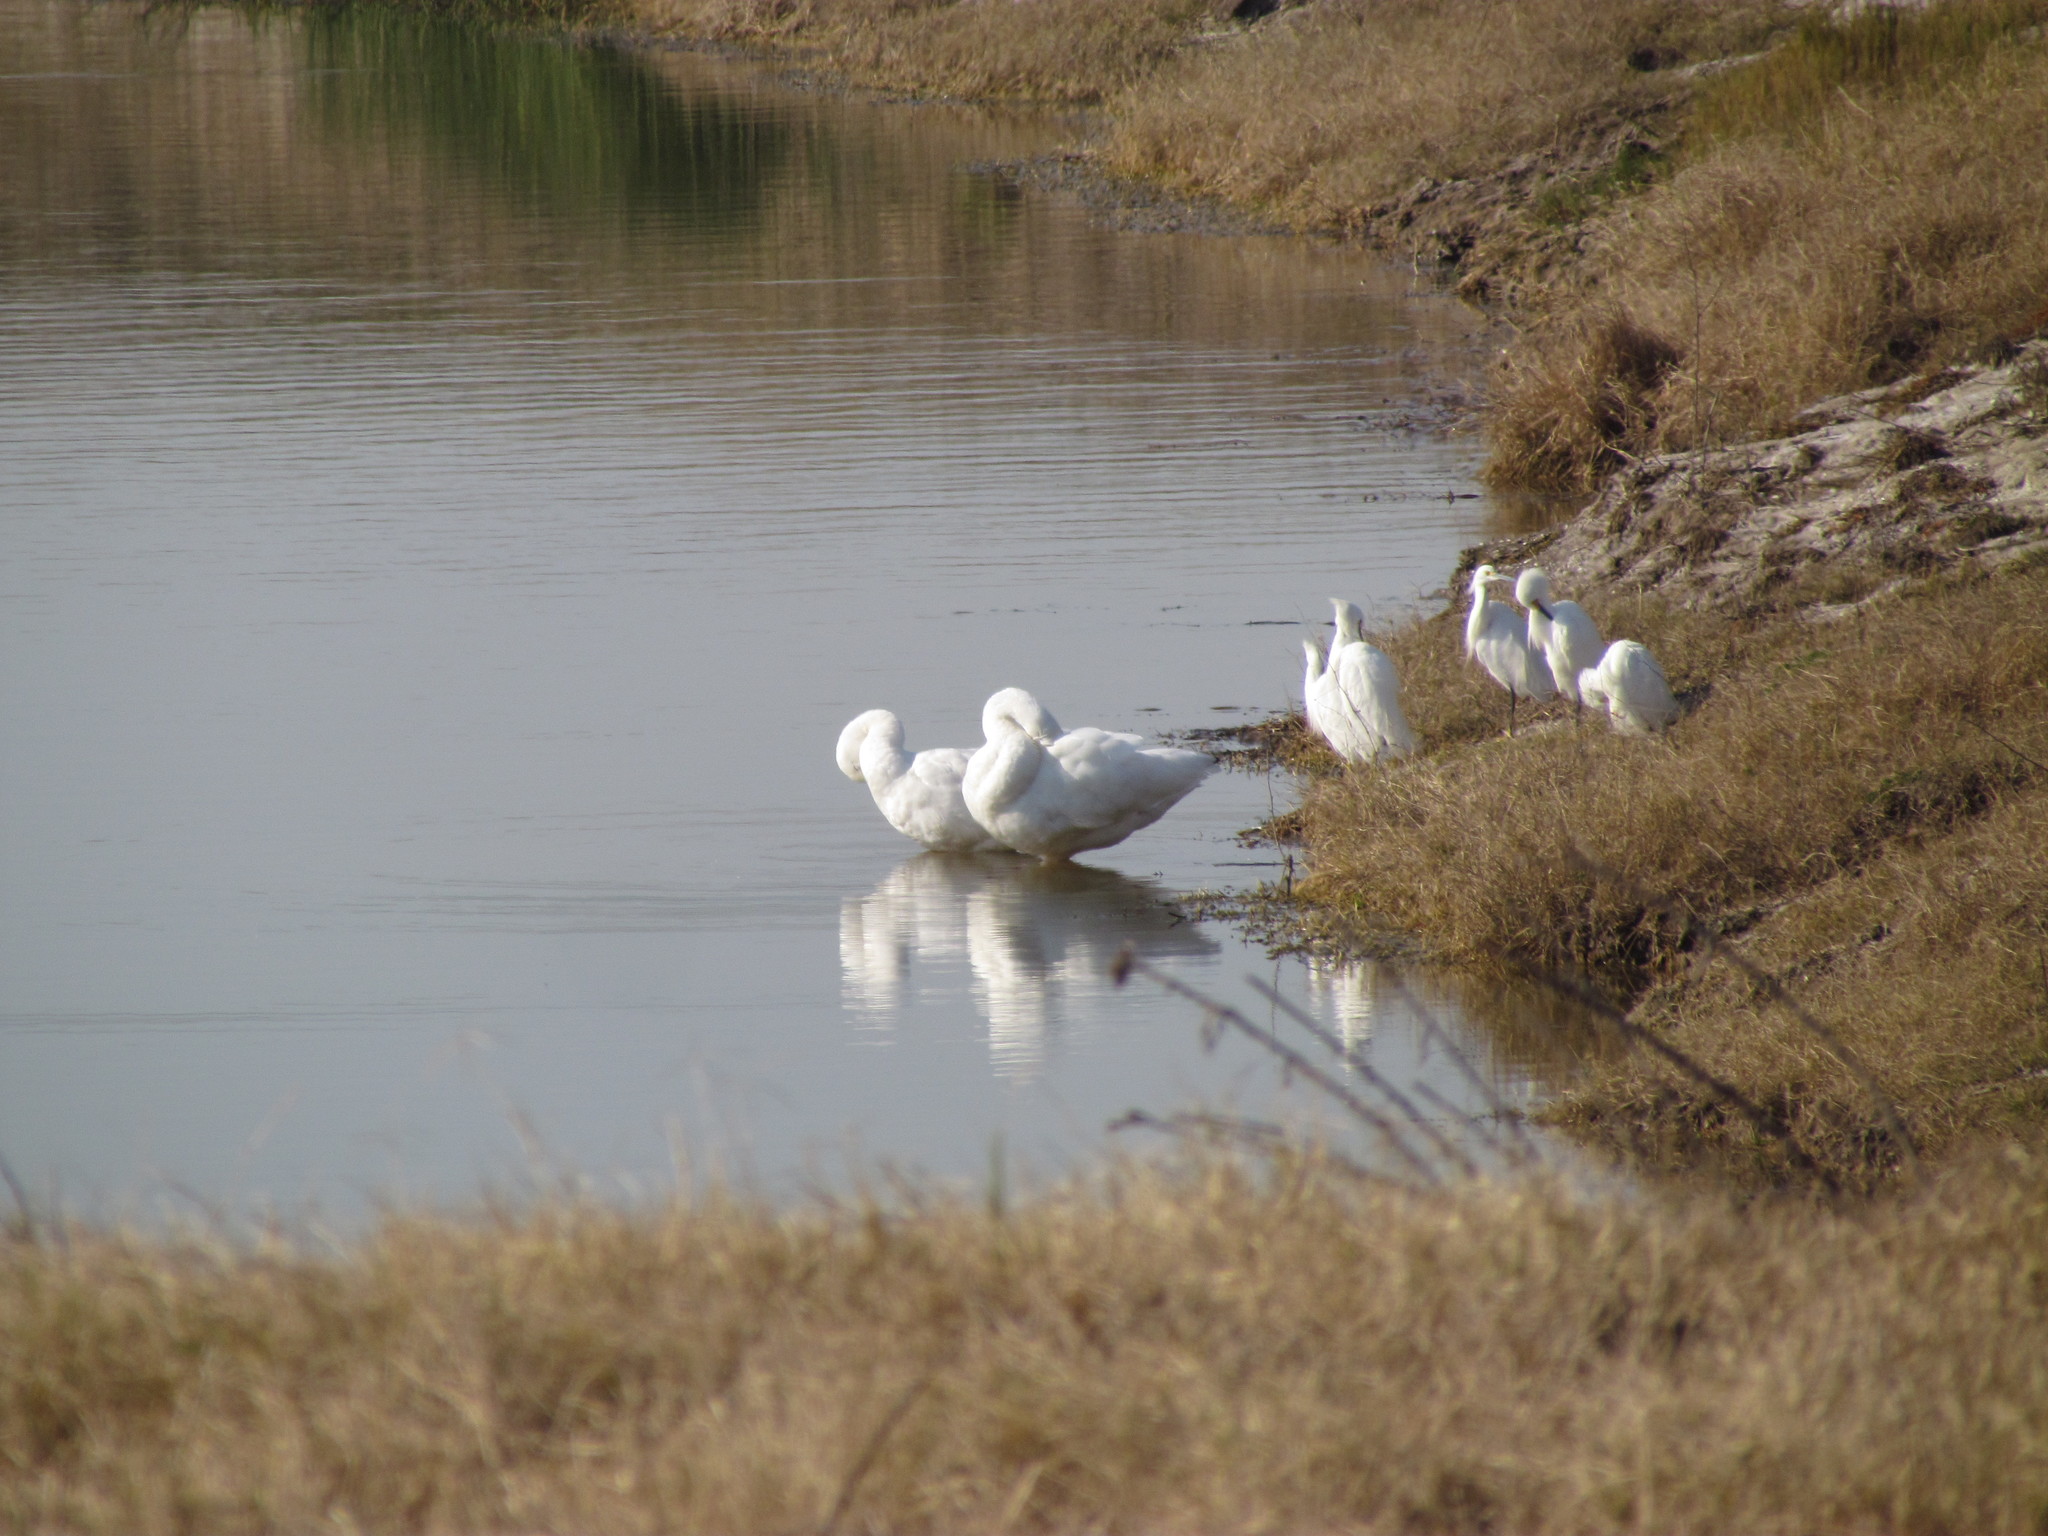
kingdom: Animalia
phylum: Chordata
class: Aves
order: Anseriformes
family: Anatidae
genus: Coscoroba
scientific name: Coscoroba coscoroba
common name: Coscoroba swan
